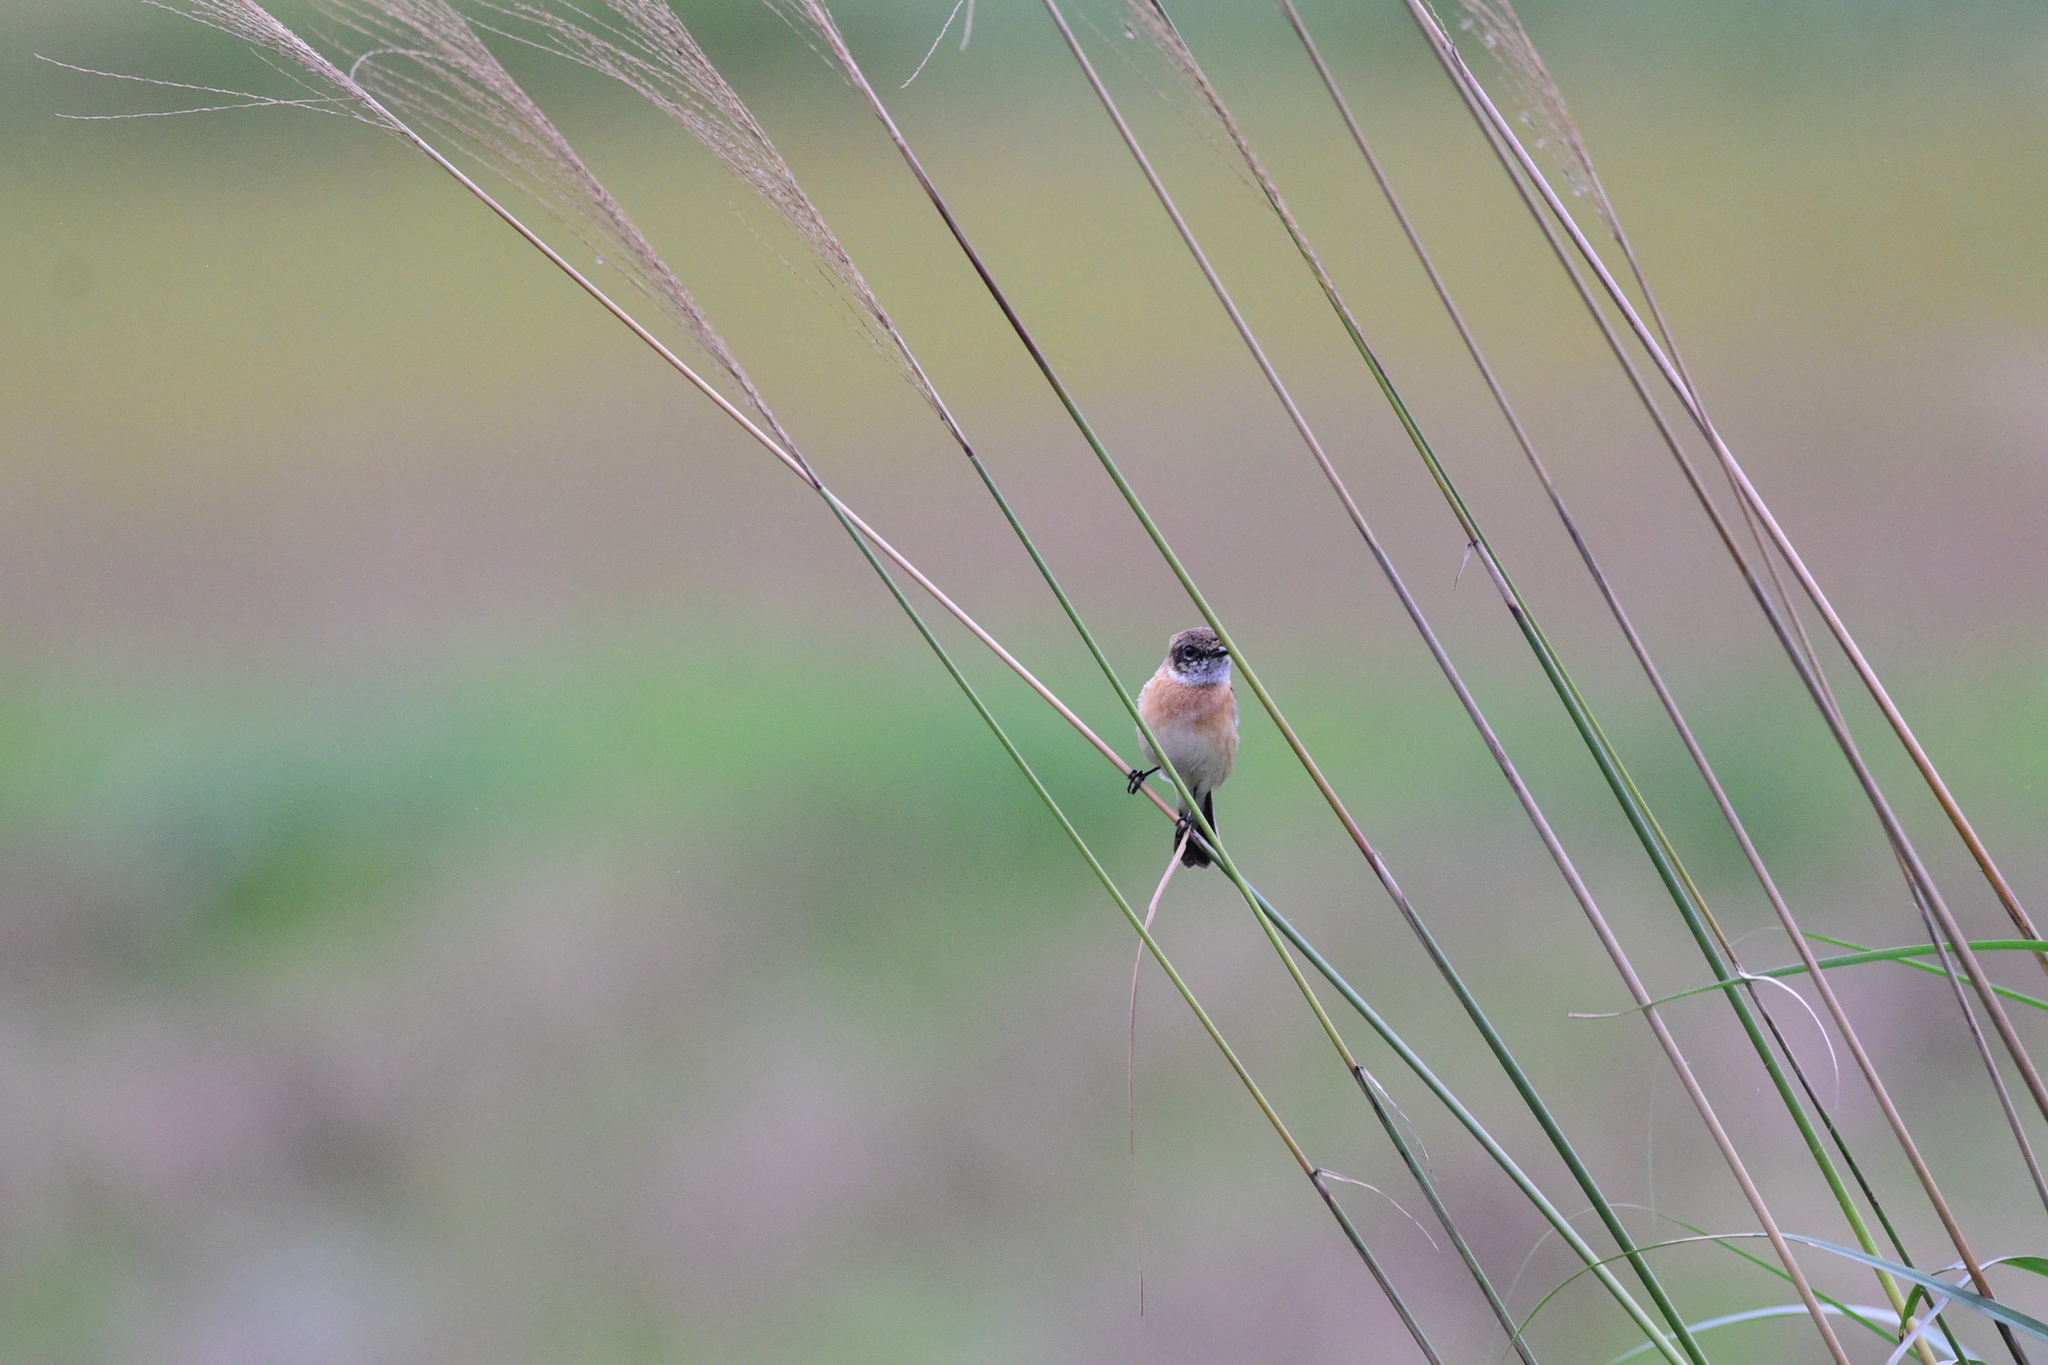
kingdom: Animalia
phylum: Chordata
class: Aves
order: Passeriformes
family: Muscicapidae
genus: Saxicola
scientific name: Saxicola stejnegeri
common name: Stejneger's stonechat
